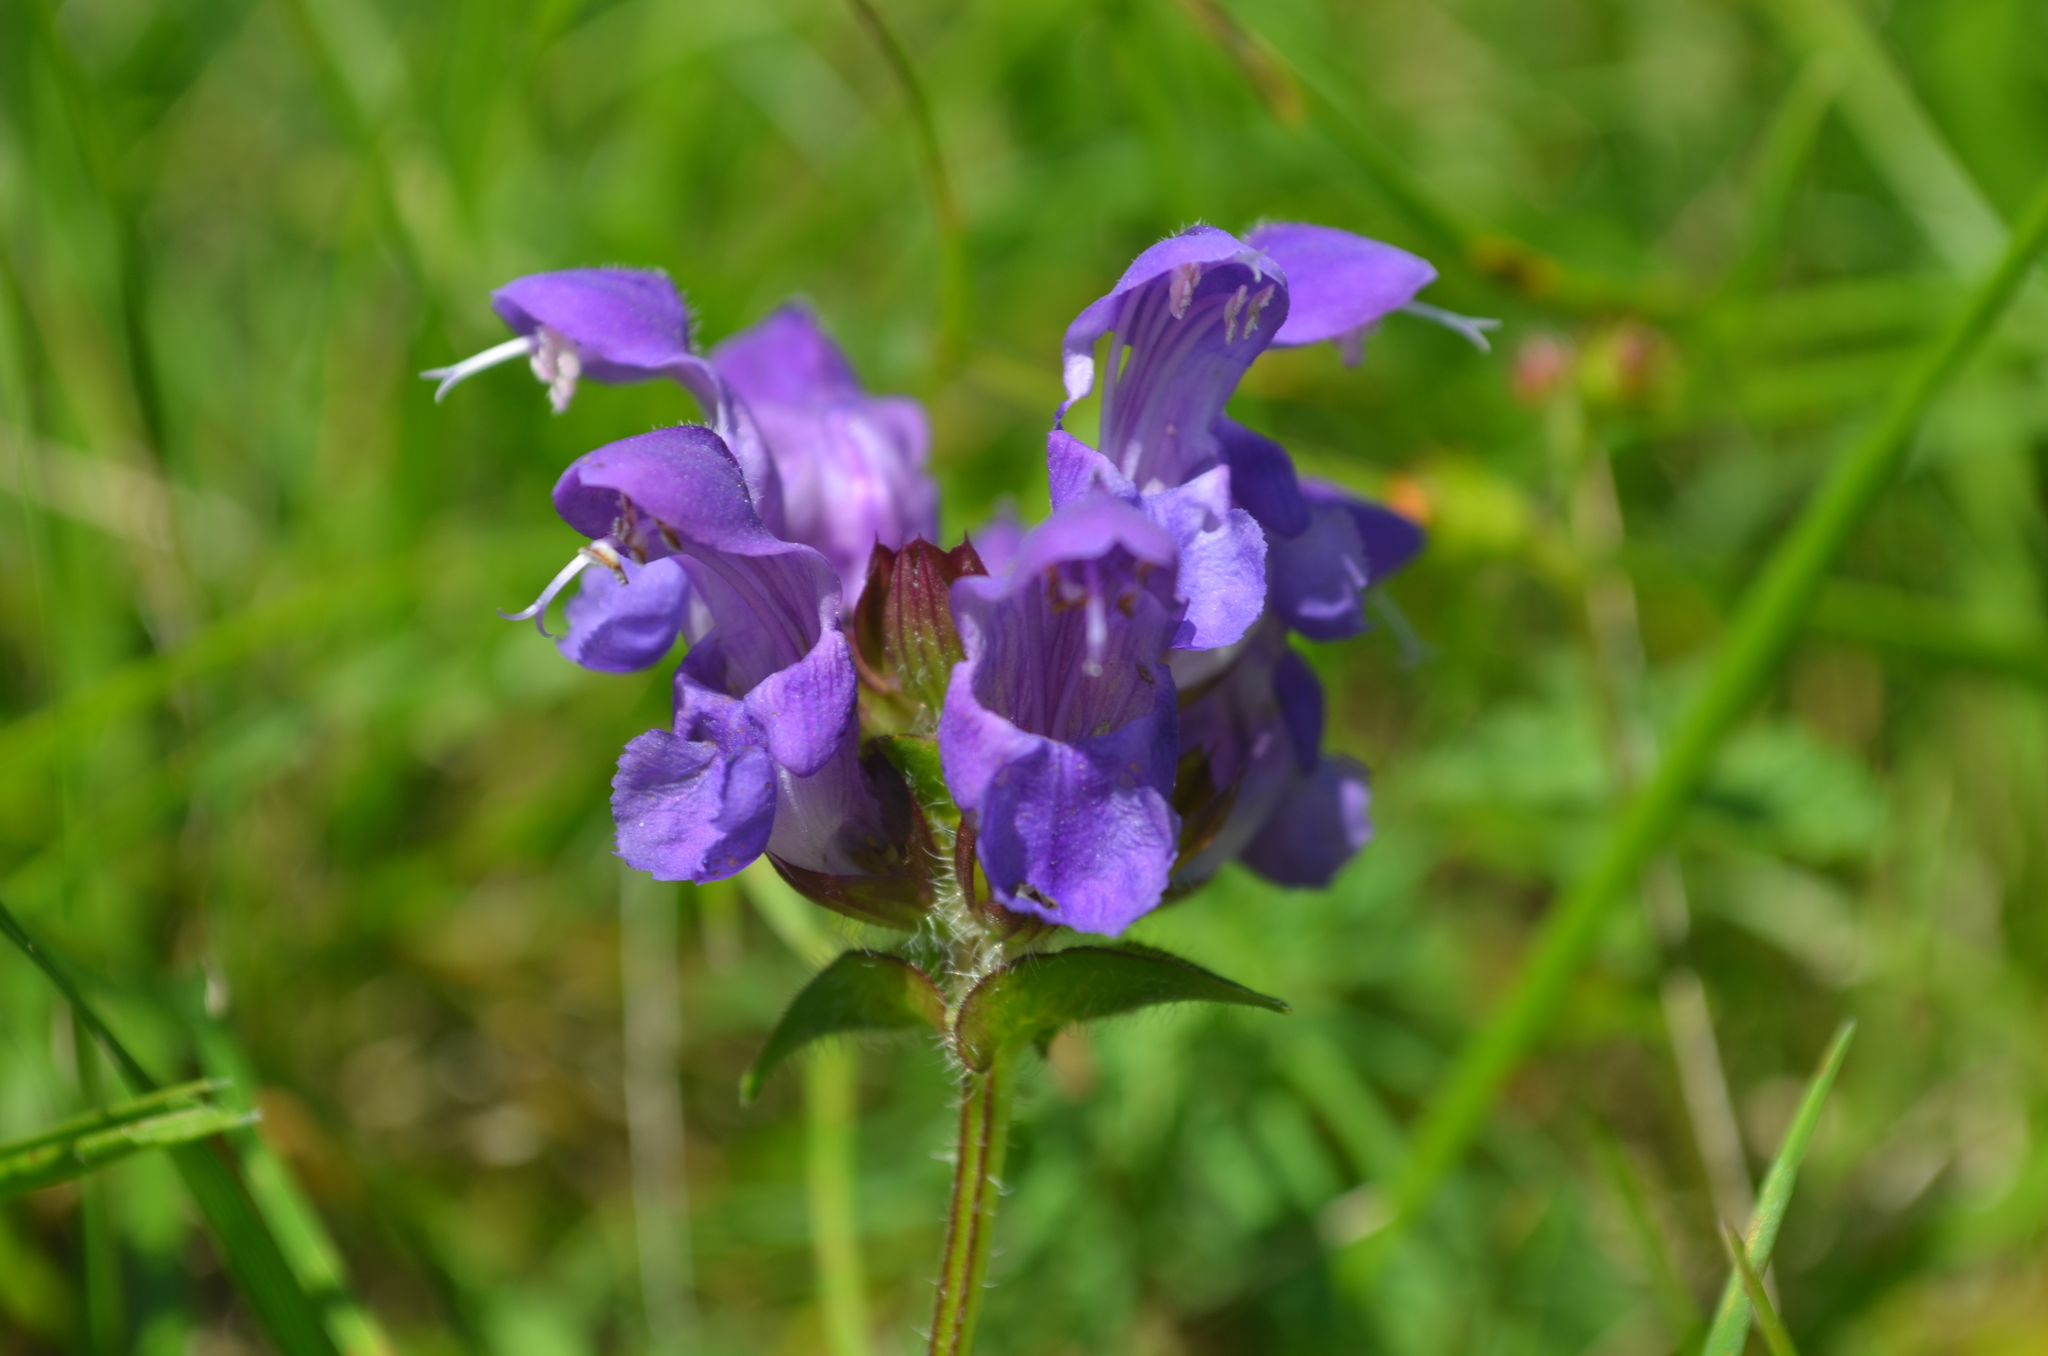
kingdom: Plantae
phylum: Tracheophyta
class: Magnoliopsida
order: Lamiales
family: Lamiaceae
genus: Prunella
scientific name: Prunella grandiflora
